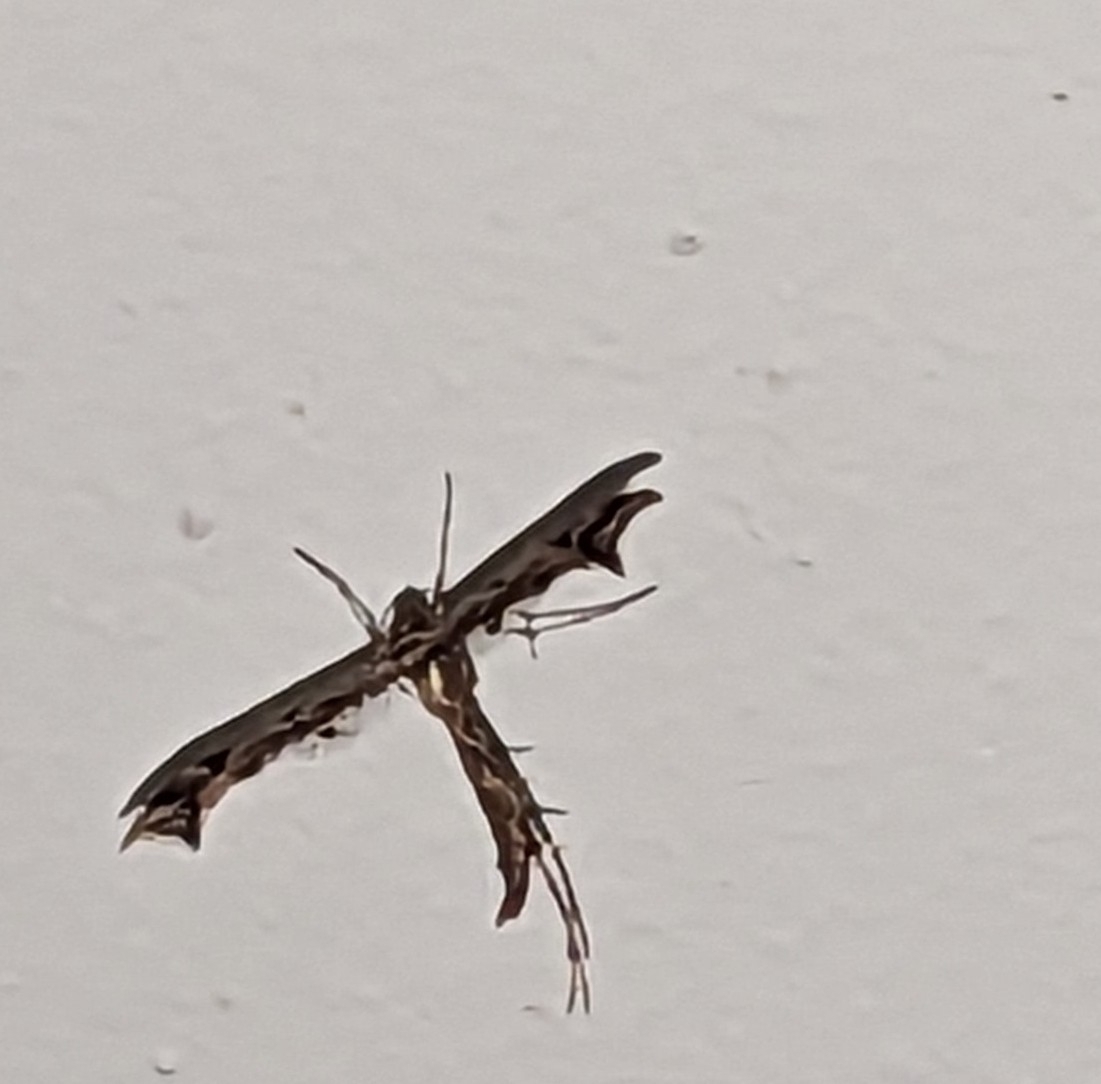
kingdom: Animalia
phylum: Arthropoda
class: Insecta
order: Lepidoptera
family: Pterophoridae
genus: Amblyptilia
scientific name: Amblyptilia acanthadactyla
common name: Beautiful plume
